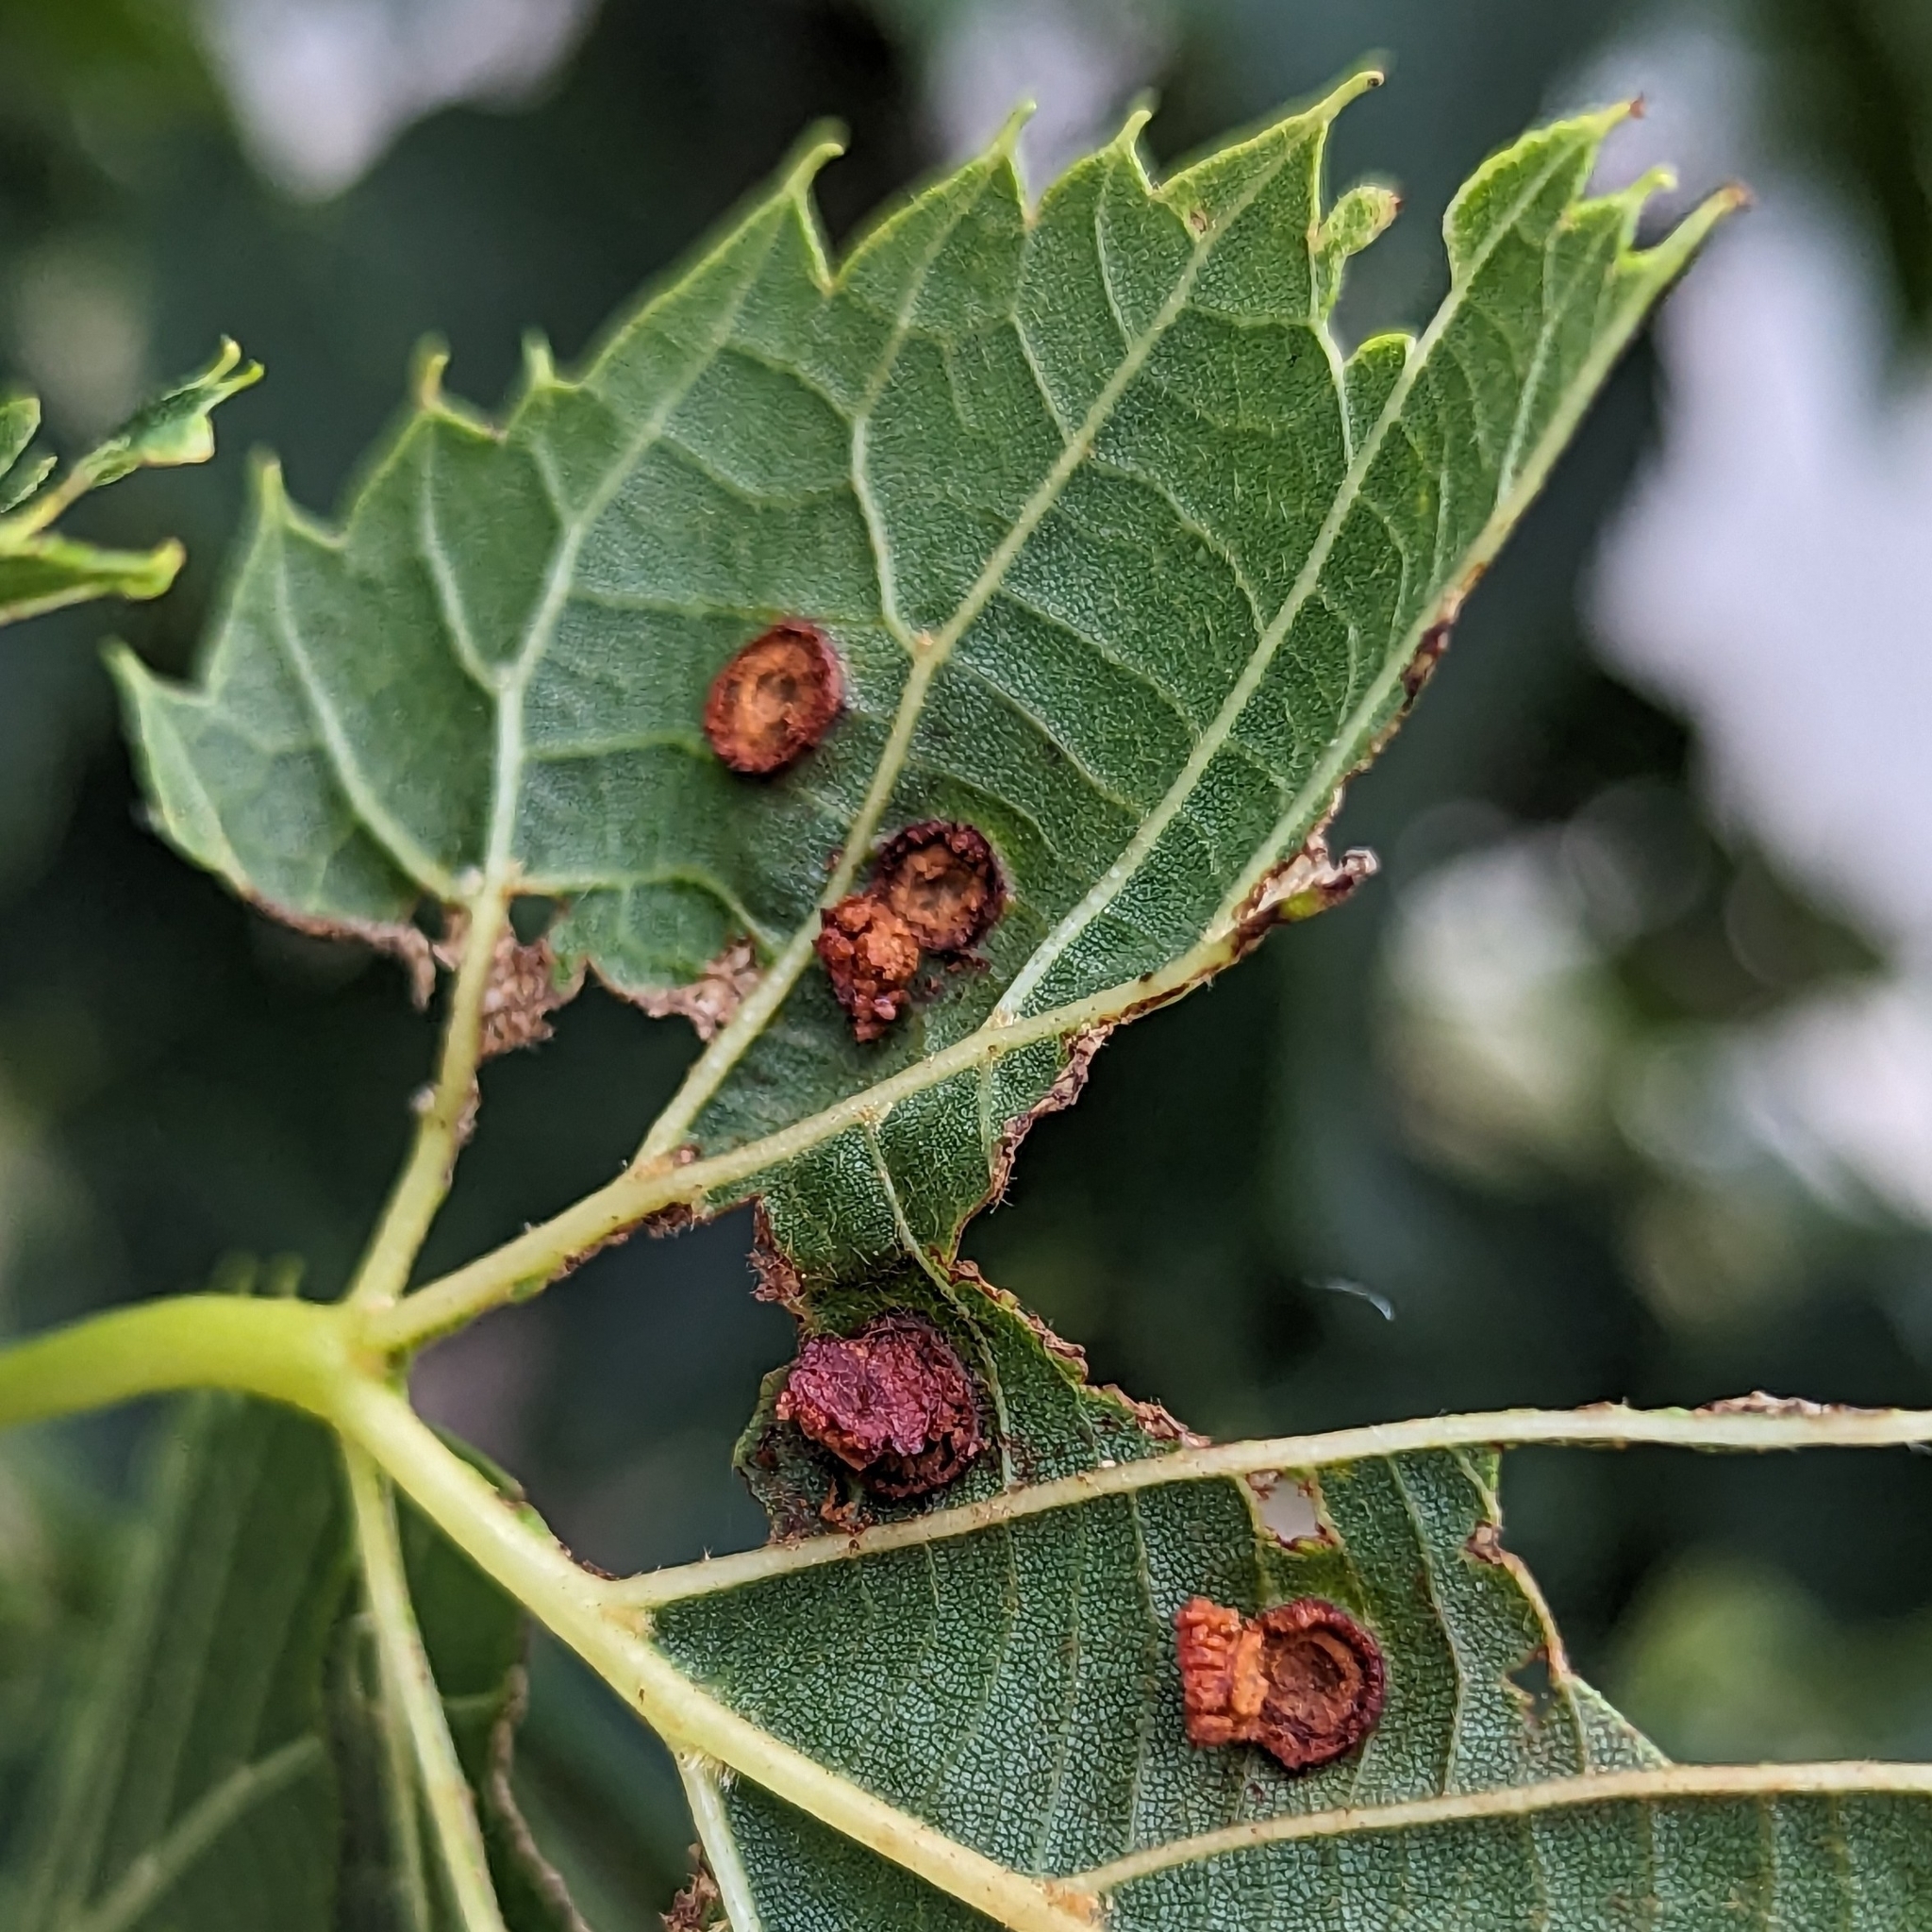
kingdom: Animalia
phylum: Arthropoda
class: Insecta
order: Diptera
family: Cecidomyiidae
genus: Contarinia
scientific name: Contarinia verrucicola
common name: Linden wart gall midge
